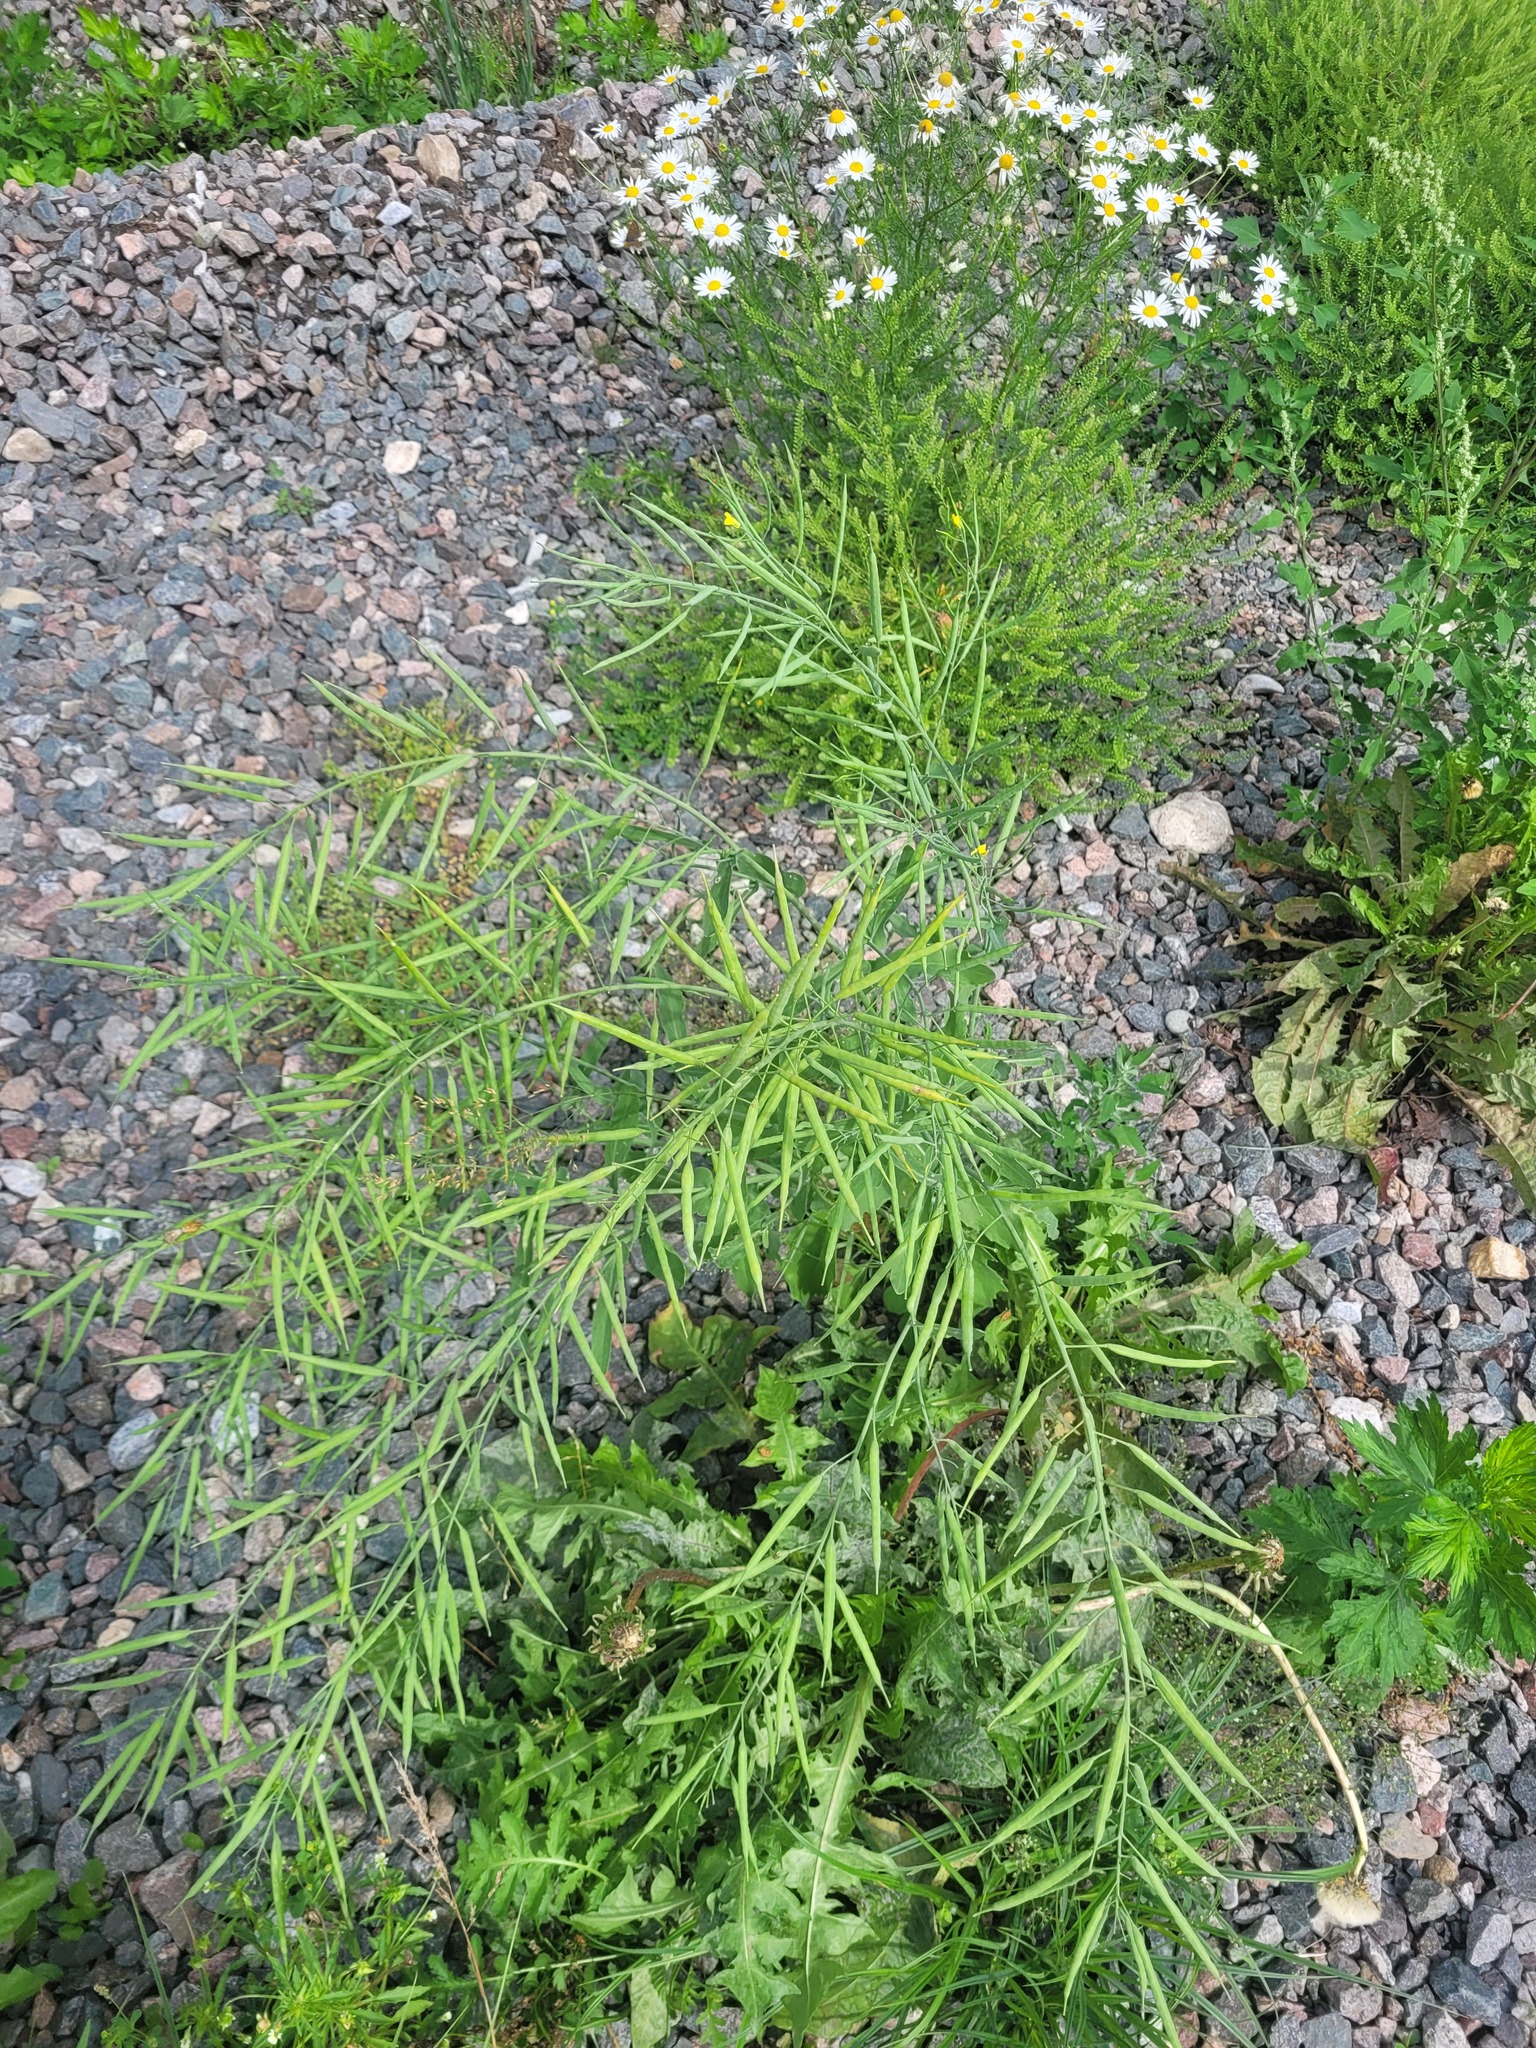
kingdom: Plantae
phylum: Tracheophyta
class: Magnoliopsida
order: Brassicales
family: Brassicaceae
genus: Brassica
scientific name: Brassica napus
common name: Rape
